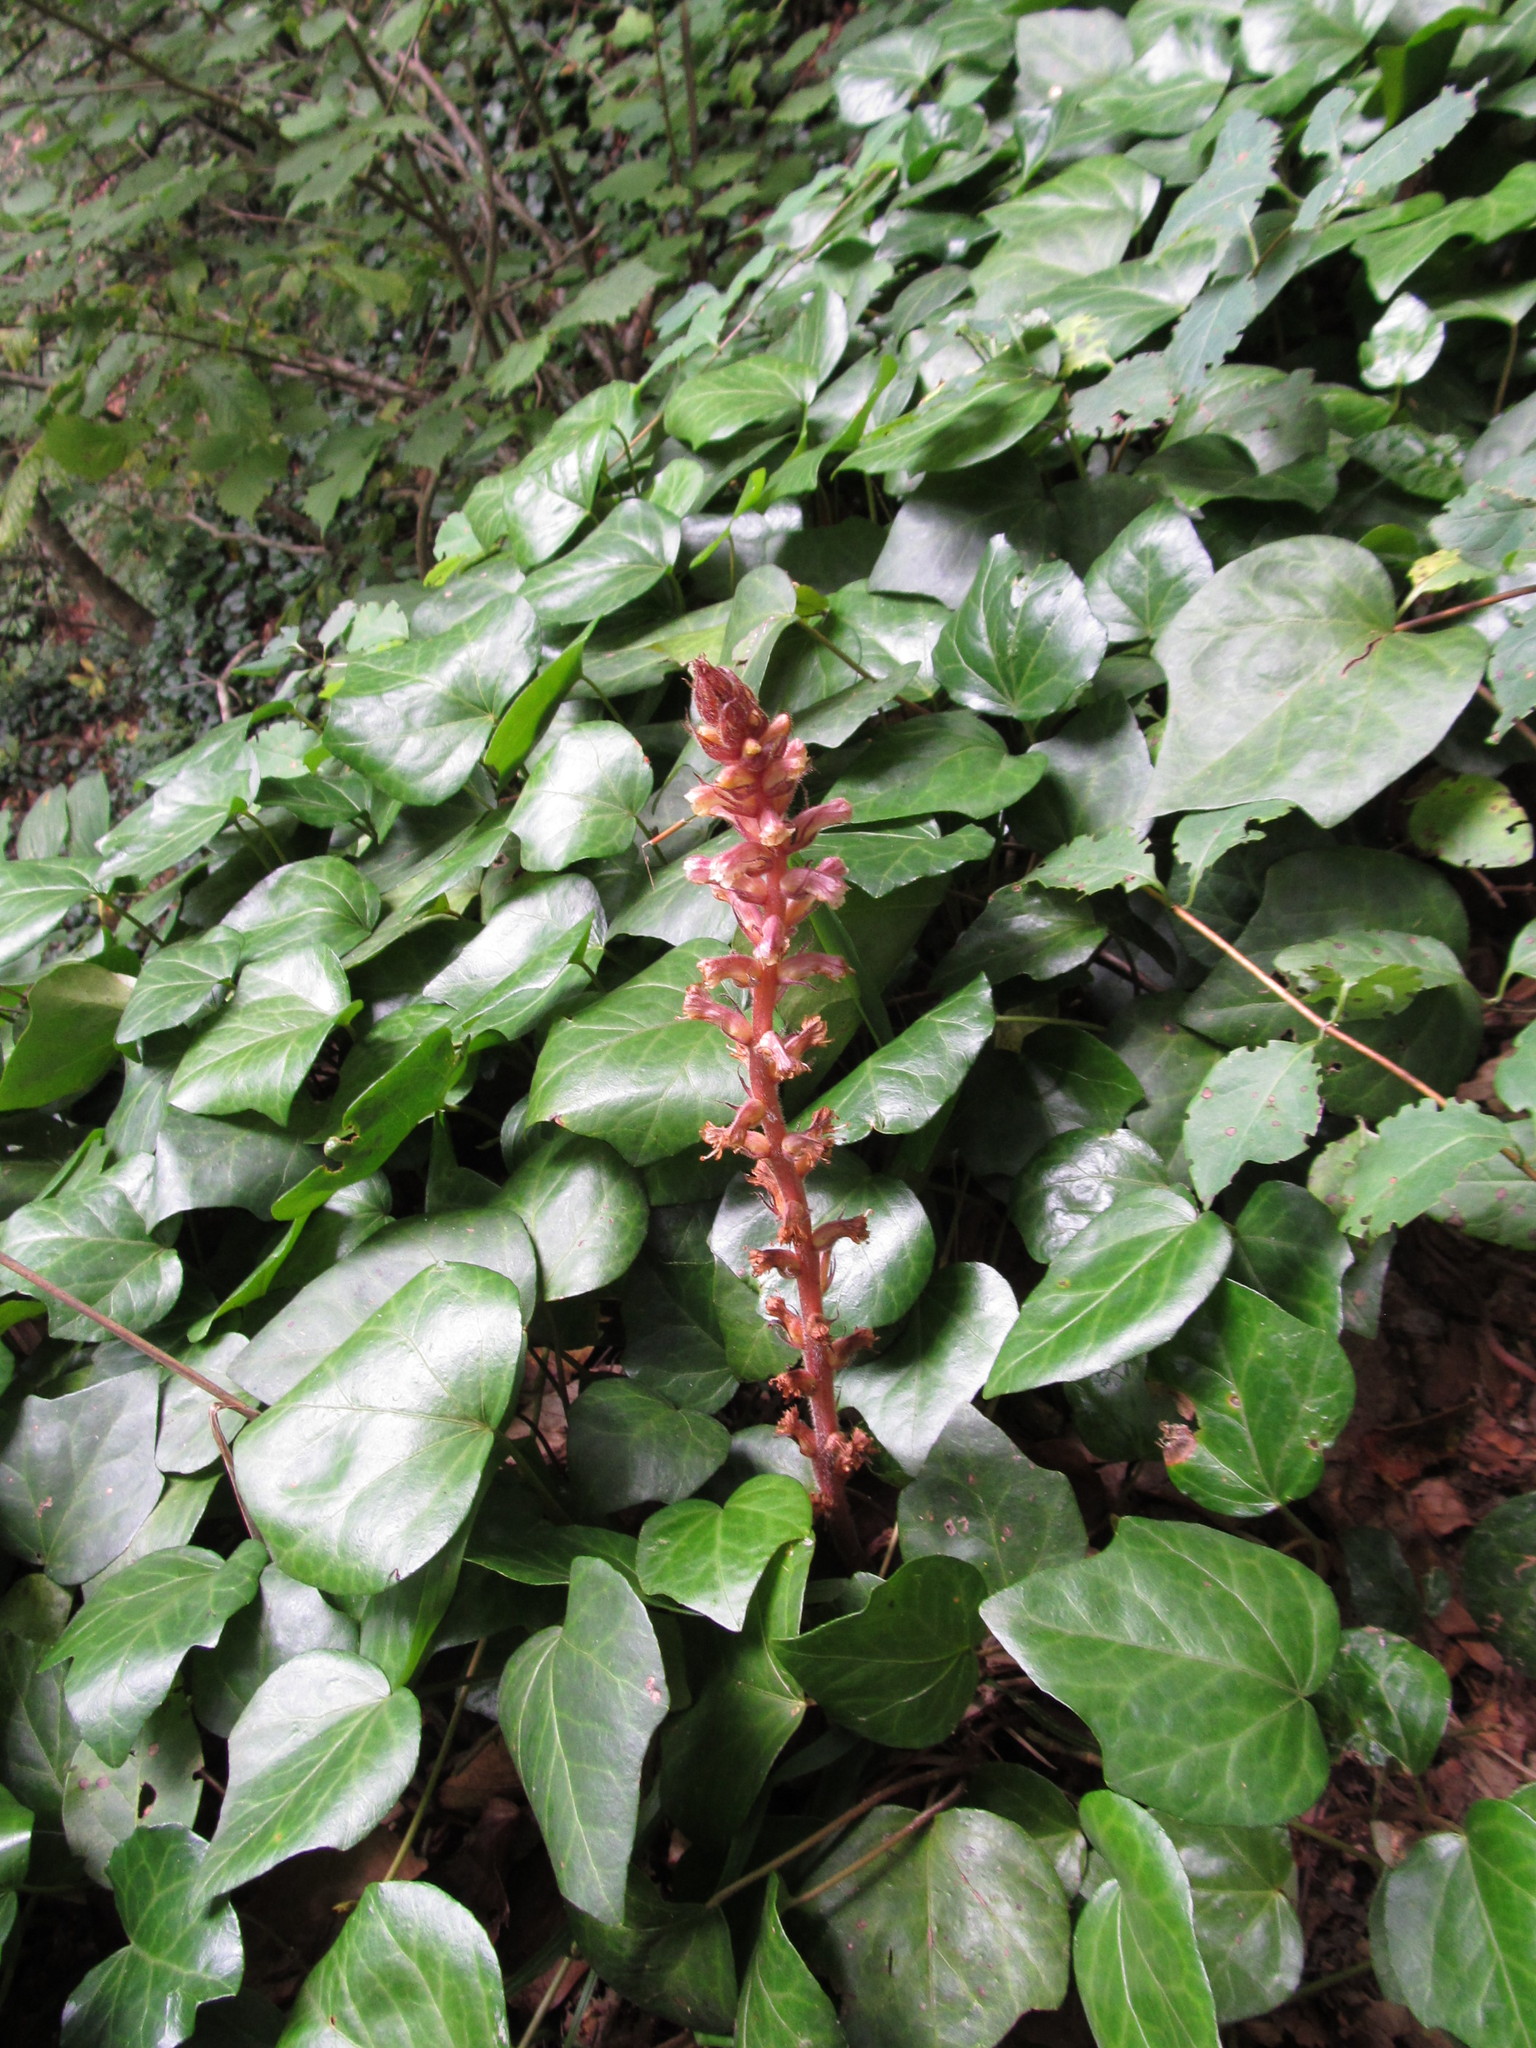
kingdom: Plantae
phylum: Tracheophyta
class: Magnoliopsida
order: Lamiales
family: Orobanchaceae
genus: Orobanche
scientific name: Orobanche hederae
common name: Ivy broomrape
